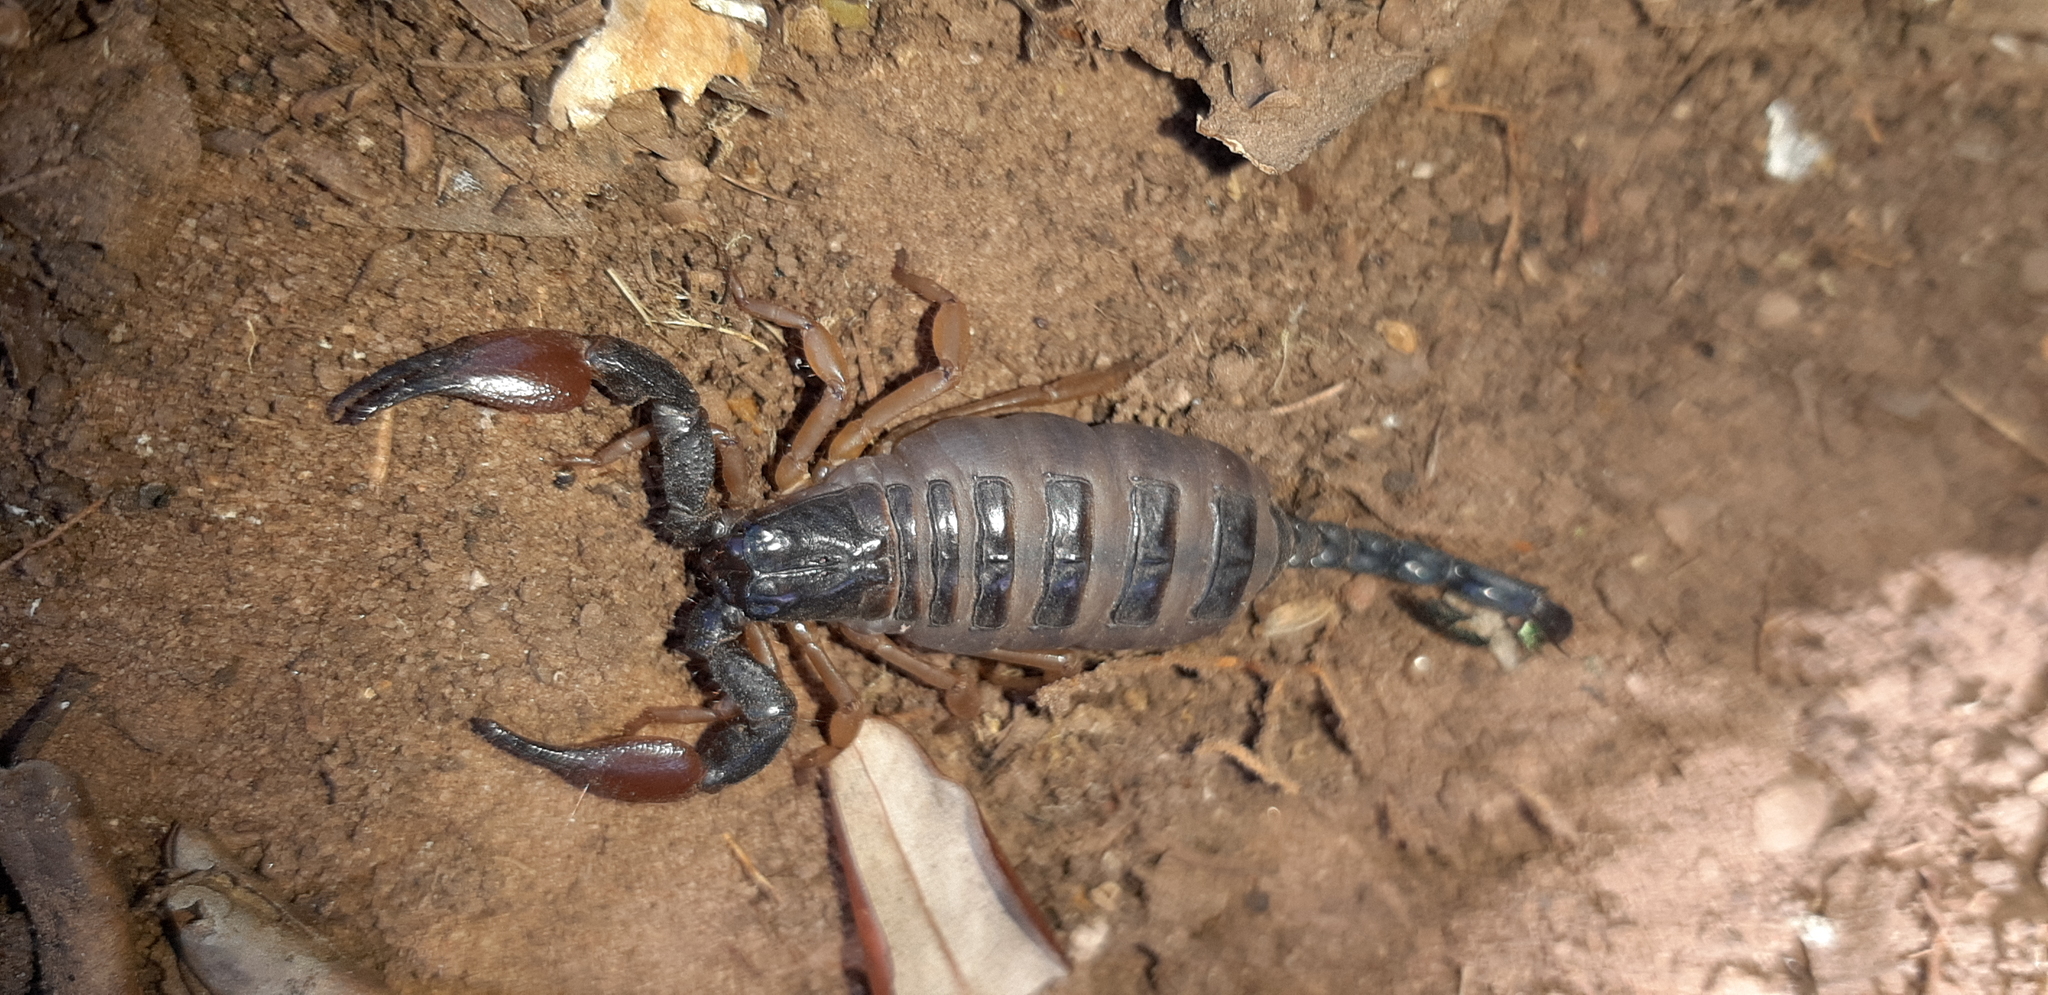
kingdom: Animalia
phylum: Arthropoda
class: Arachnida
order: Scorpiones
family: Scorpionidae
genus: Opistophthalmus
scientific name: Opistophthalmus lawrencei
